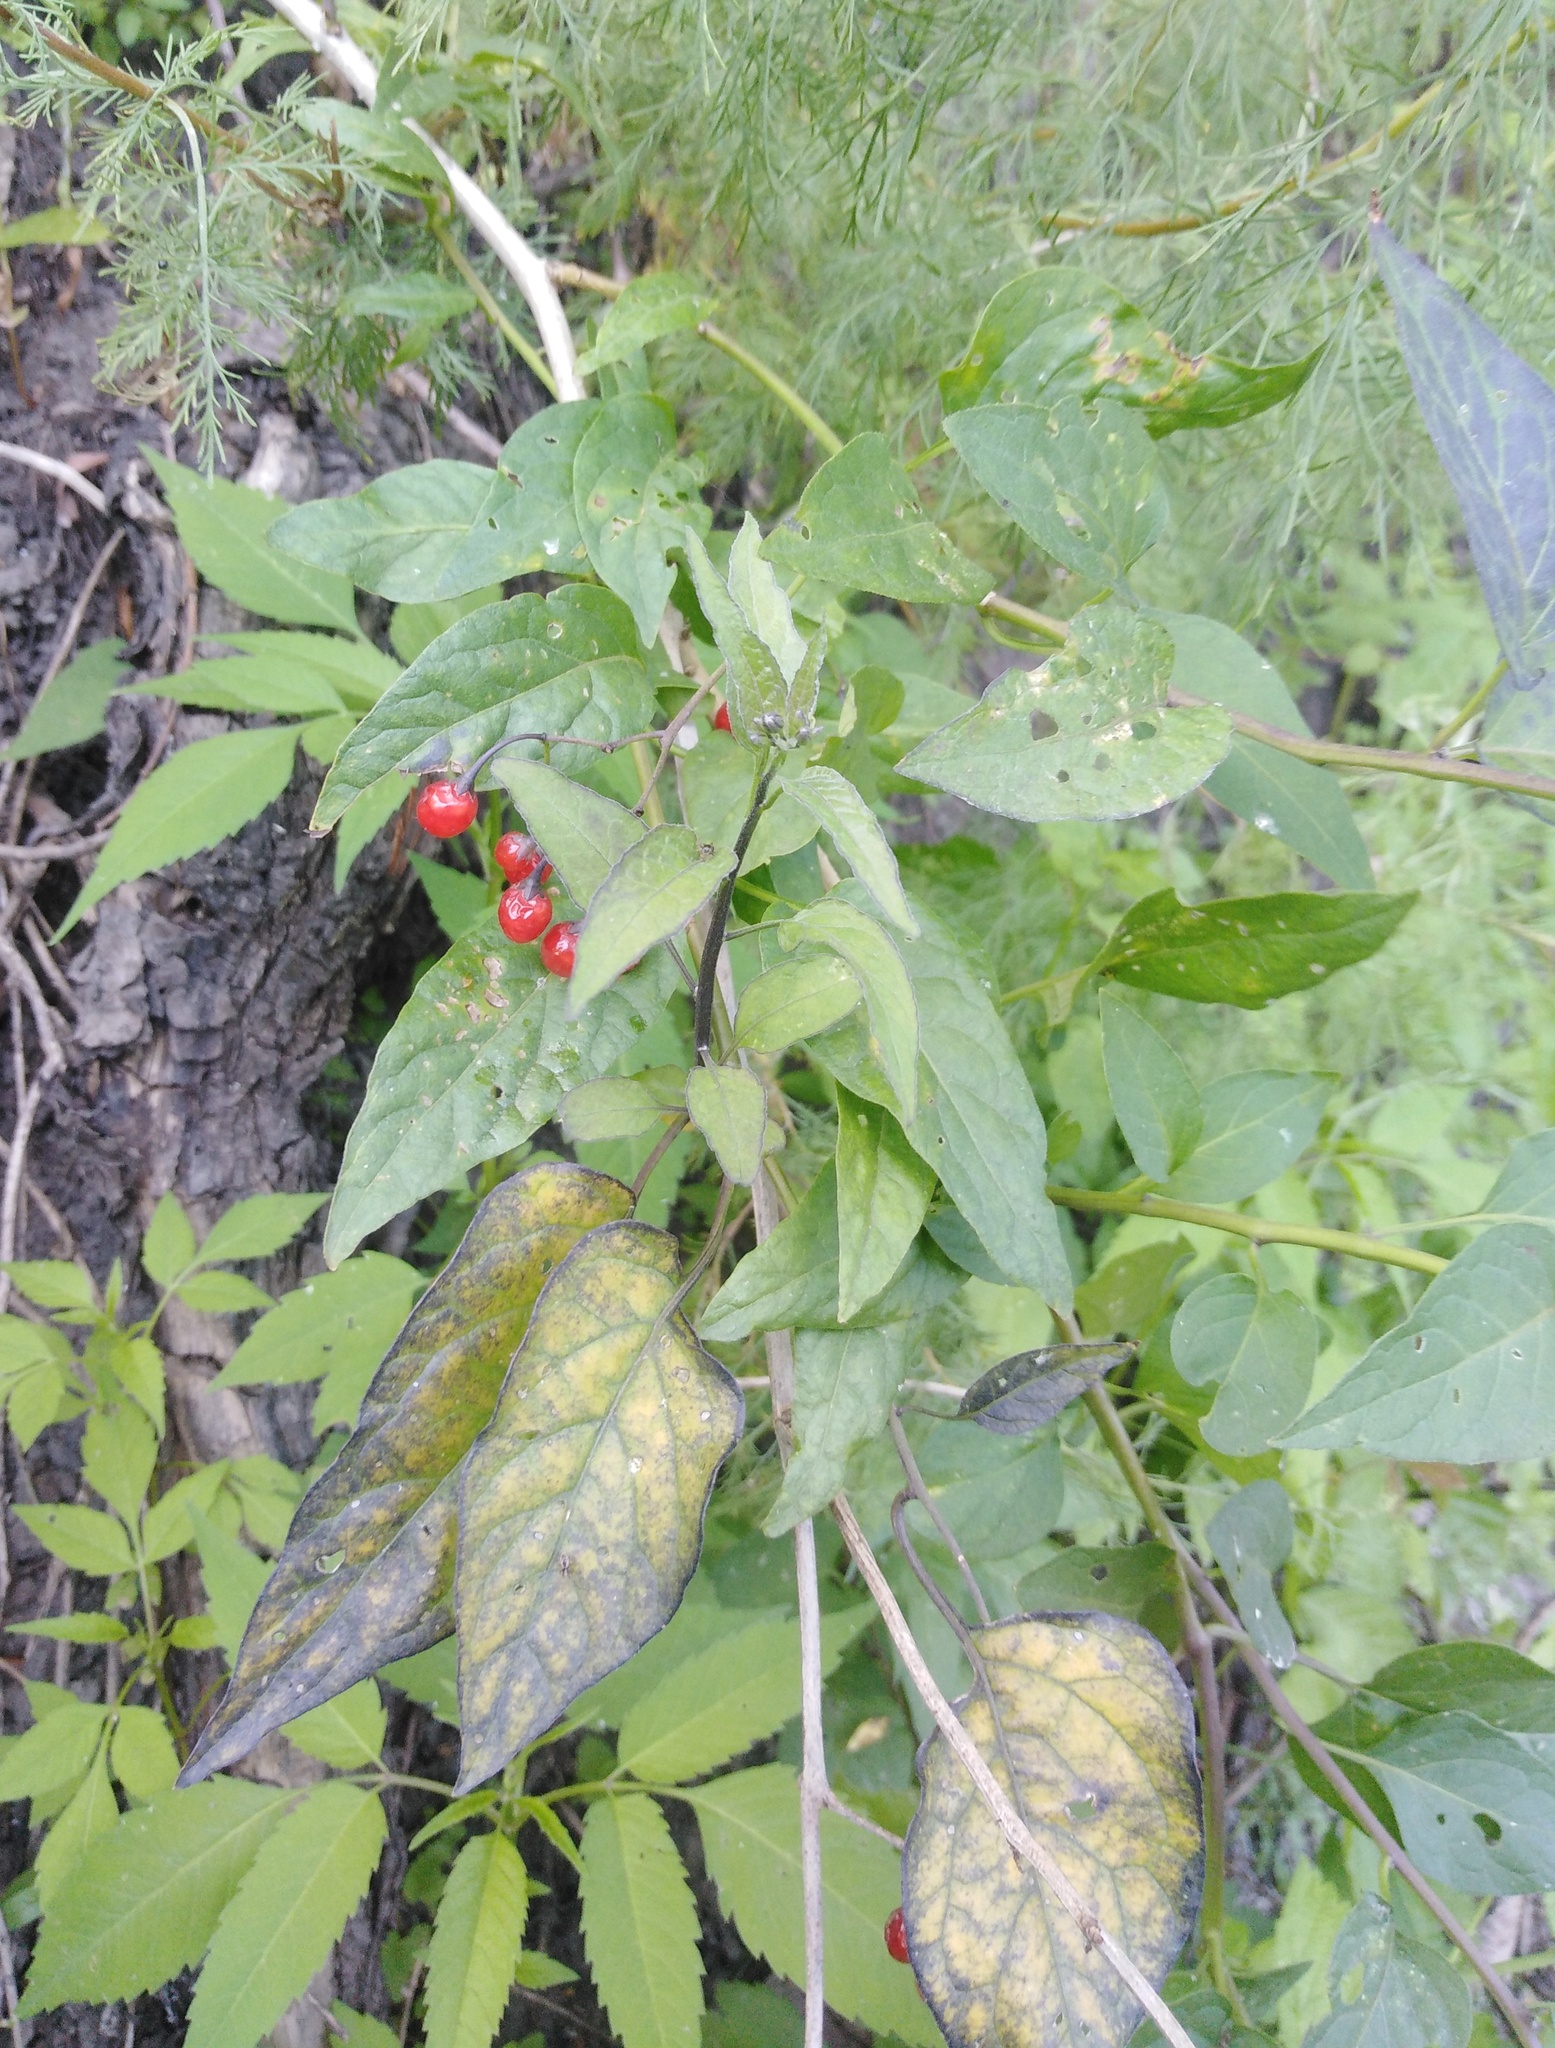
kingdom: Plantae
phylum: Tracheophyta
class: Magnoliopsida
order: Solanales
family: Solanaceae
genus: Solanum
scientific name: Solanum dulcamara
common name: Climbing nightshade
